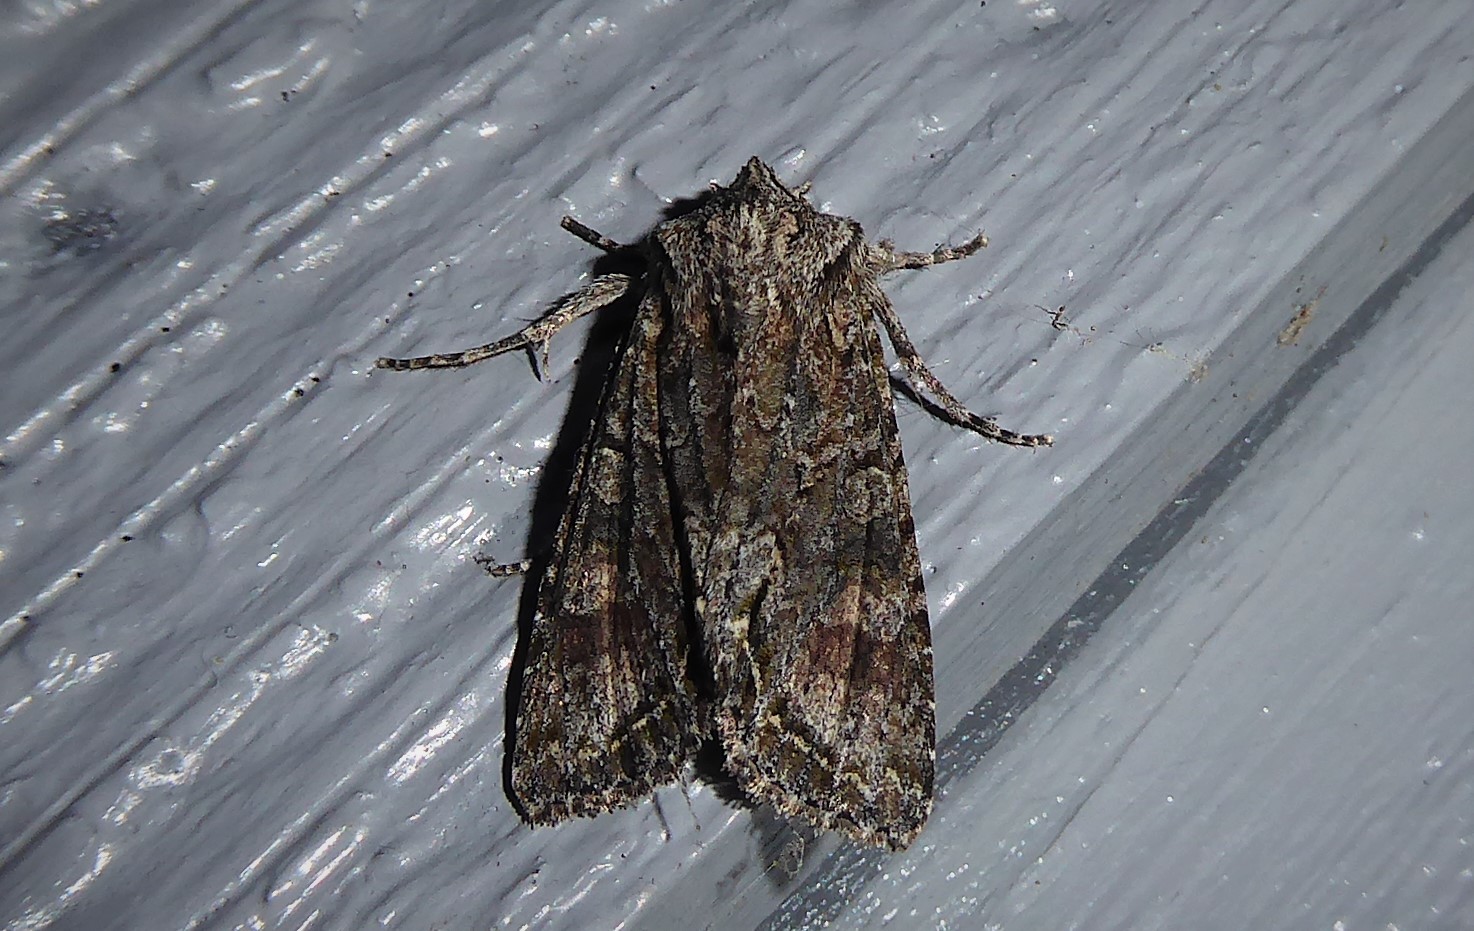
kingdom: Animalia
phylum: Arthropoda
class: Insecta
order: Lepidoptera
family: Noctuidae
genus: Ichneutica
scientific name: Ichneutica mutans
